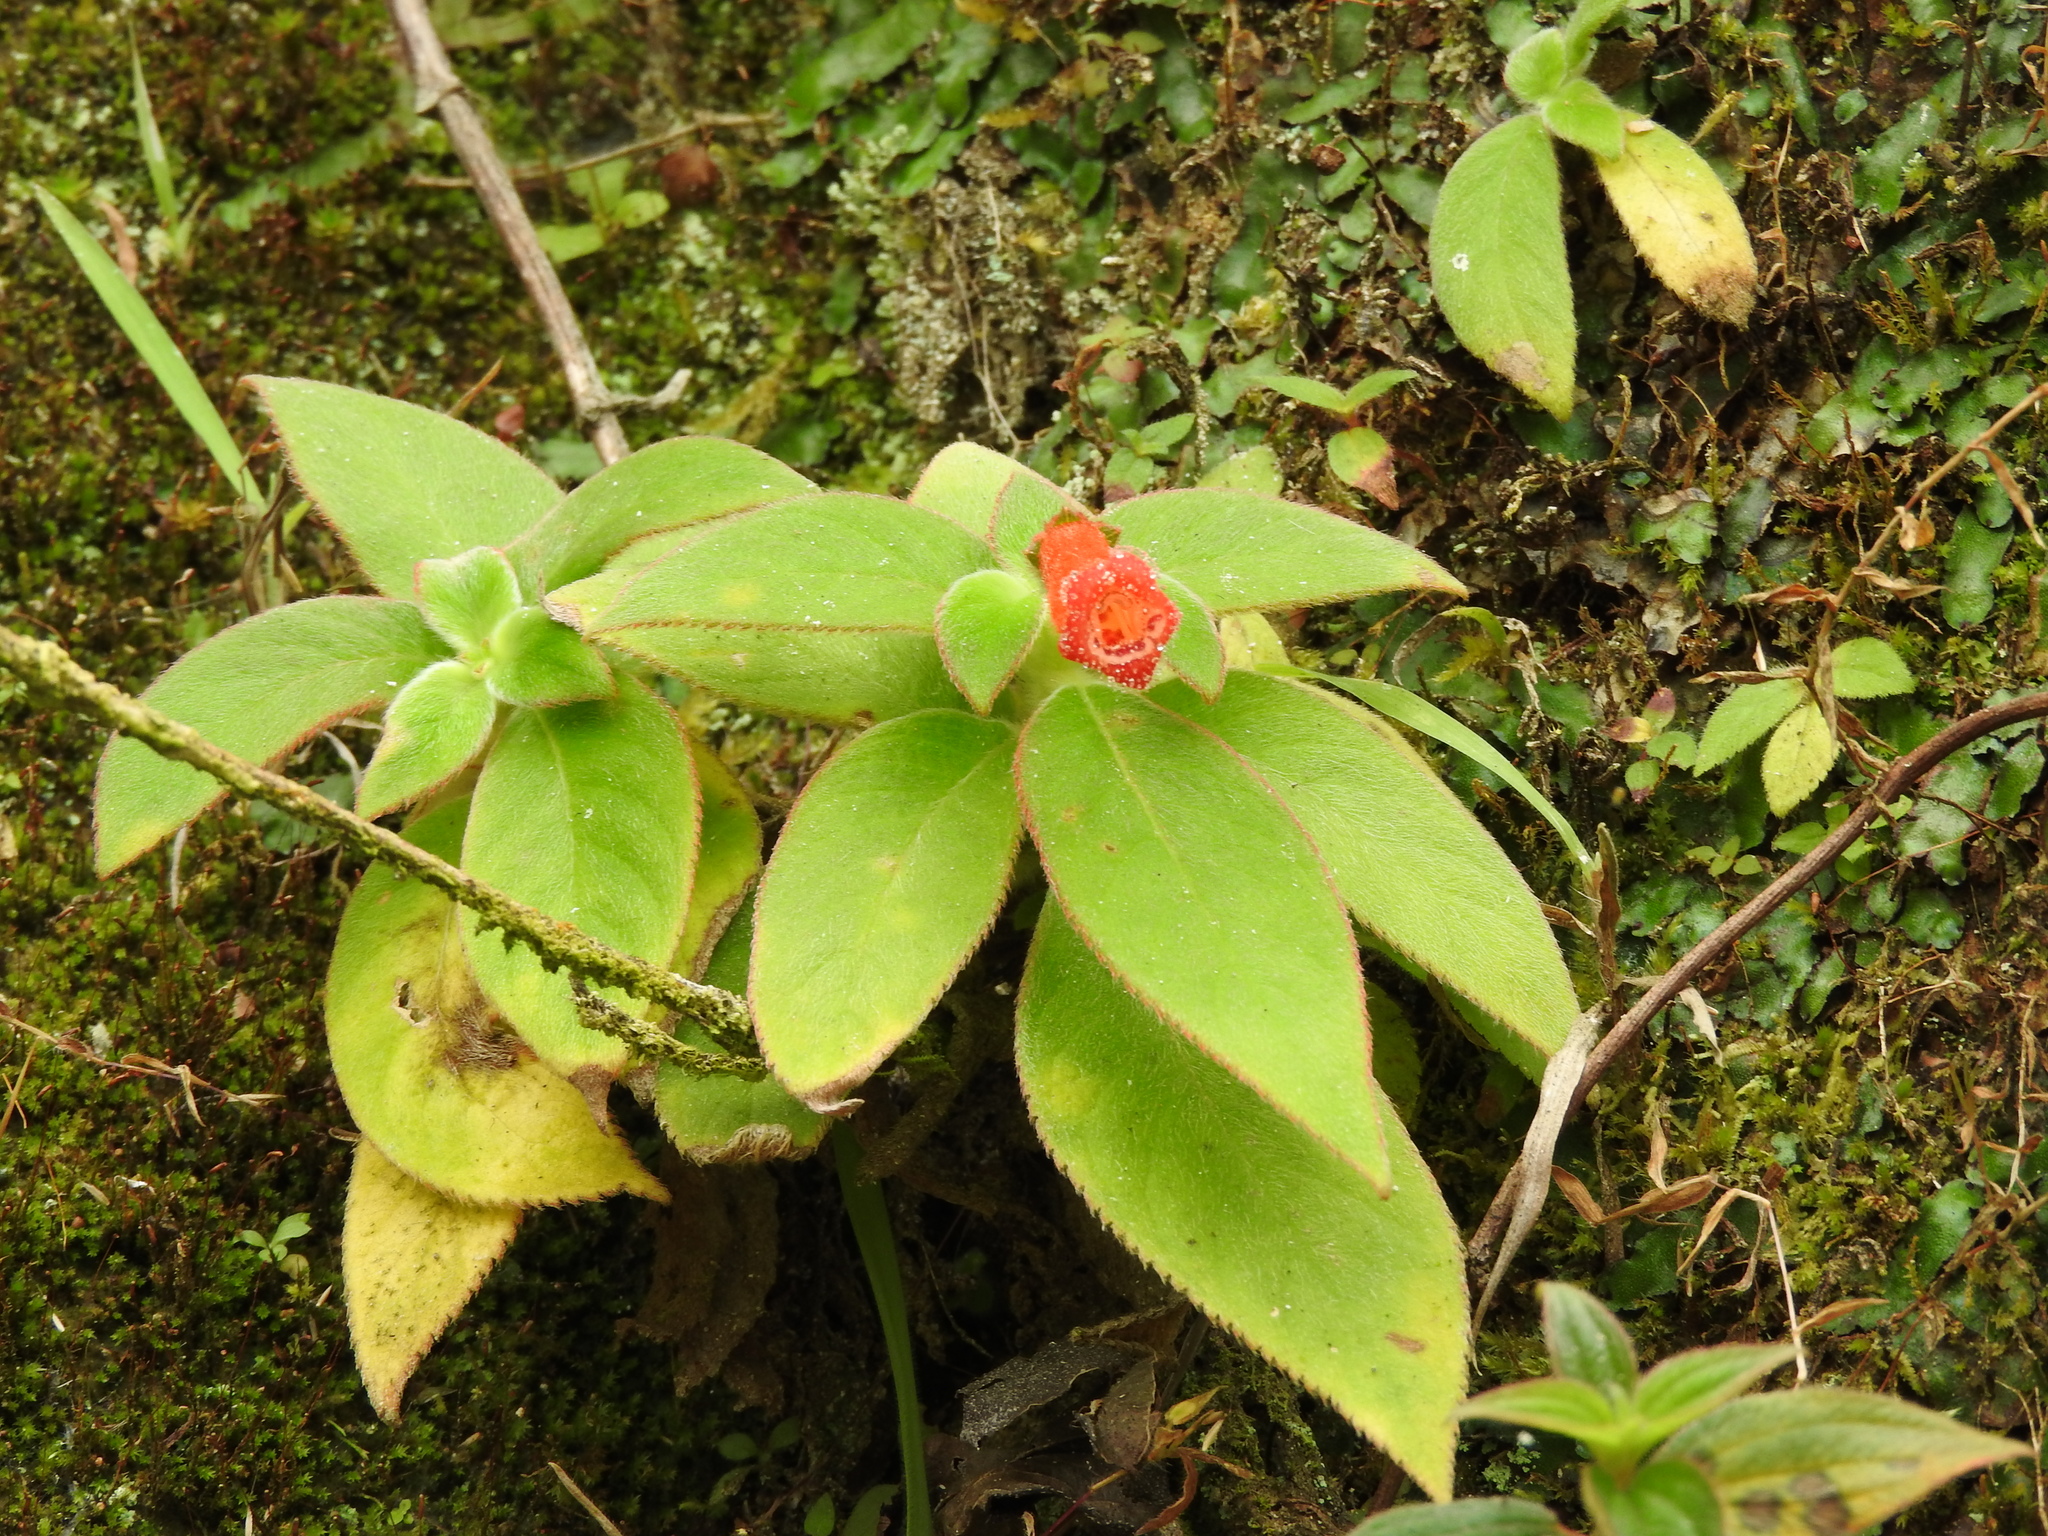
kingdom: Plantae
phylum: Tracheophyta
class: Magnoliopsida
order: Lamiales
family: Gesneriaceae
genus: Kohleria
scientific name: Kohleria spicata
